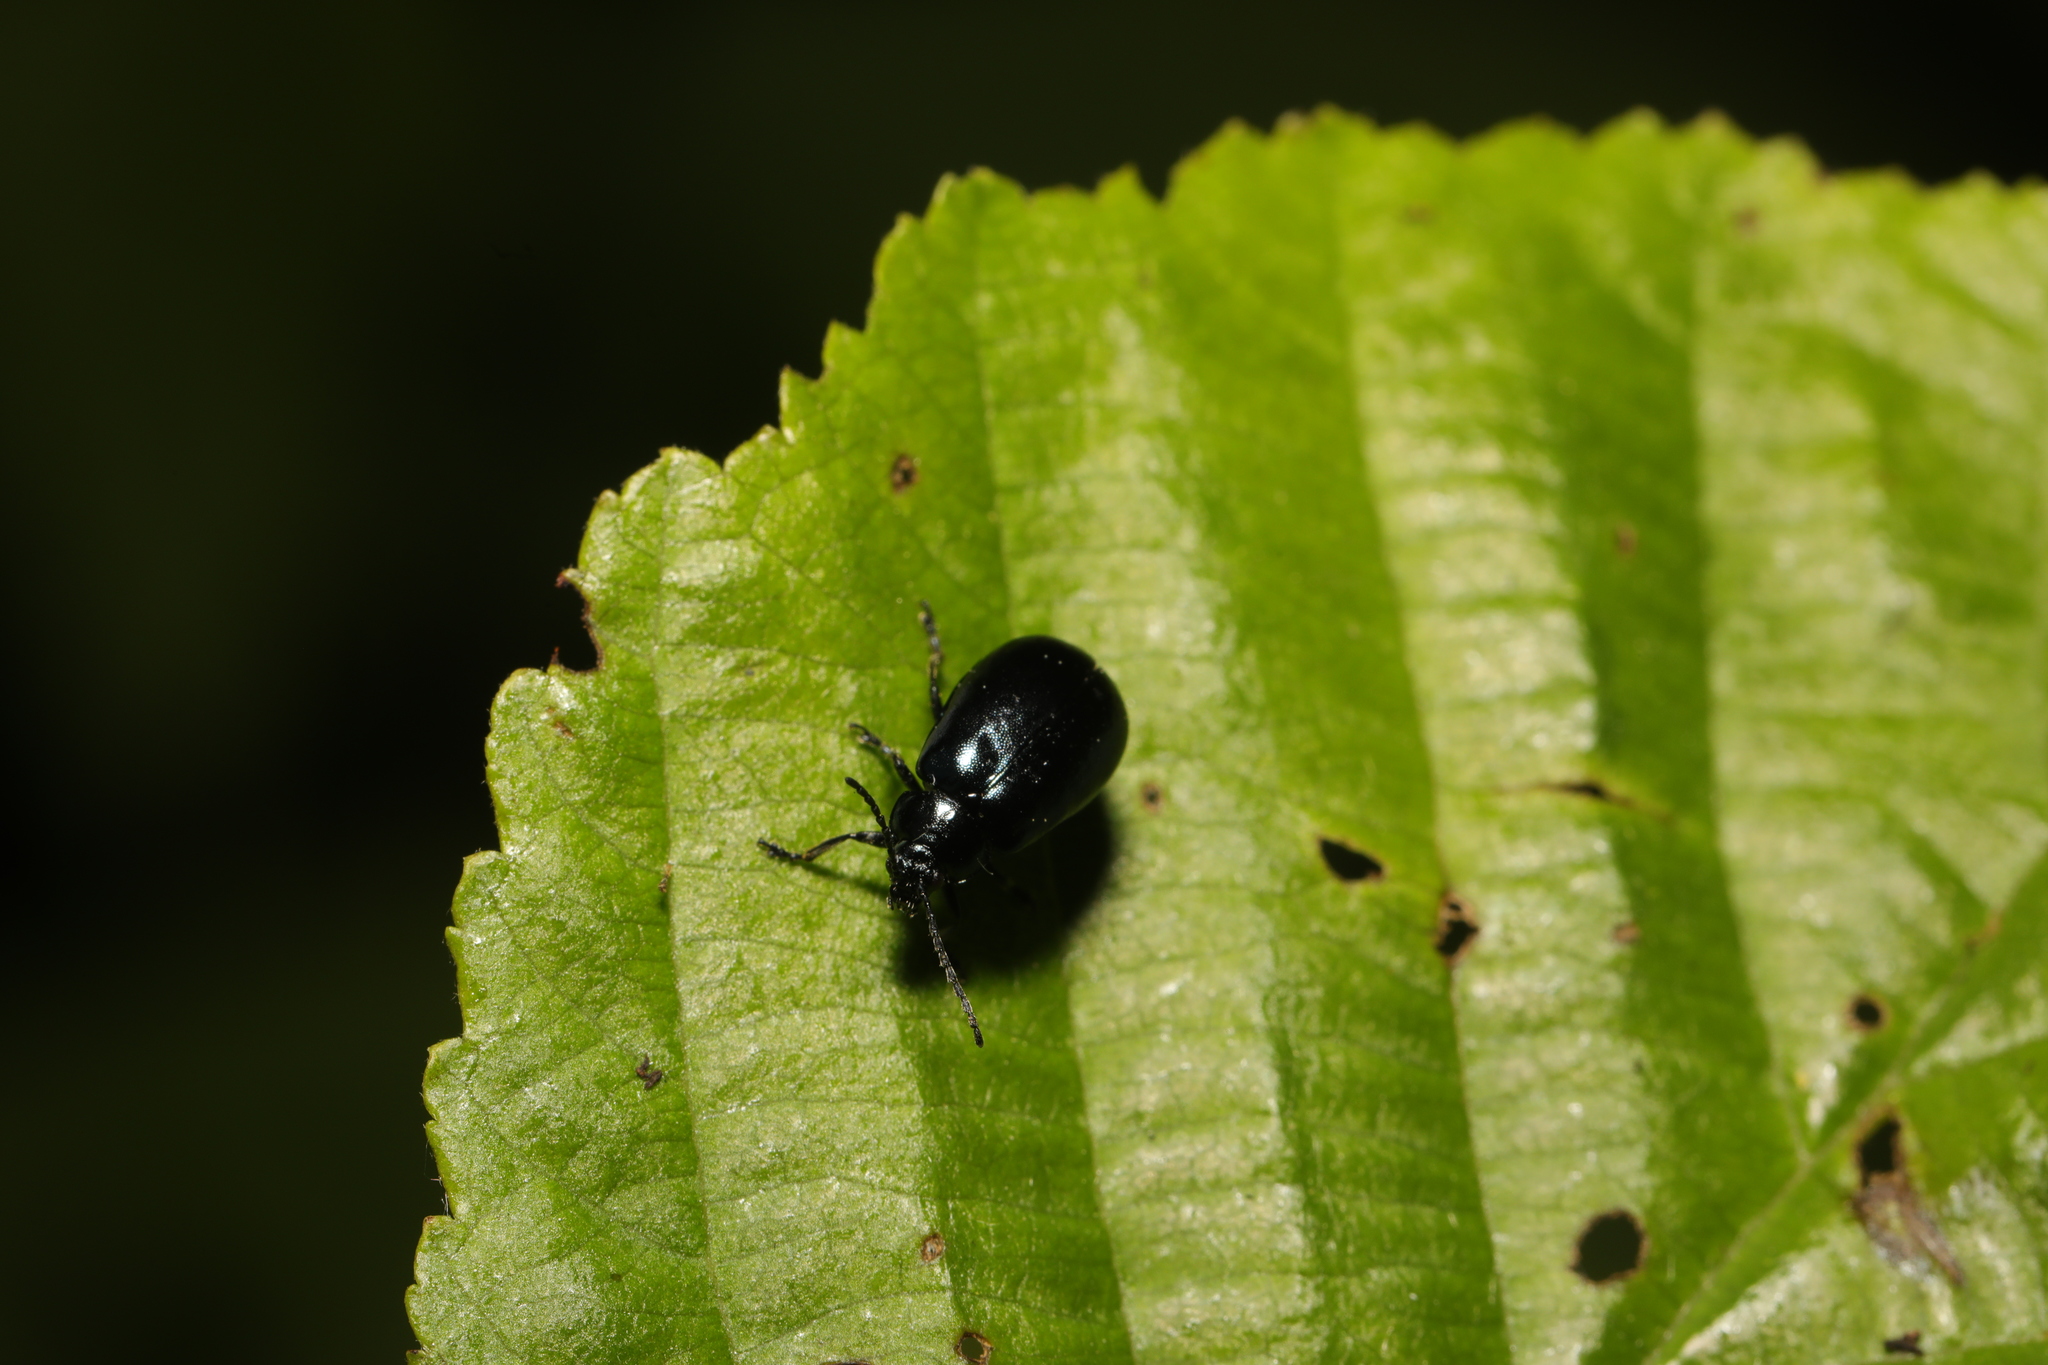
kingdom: Animalia
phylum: Arthropoda
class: Insecta
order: Coleoptera
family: Chrysomelidae
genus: Agelastica
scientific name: Agelastica alni
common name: Alder leaf beetle
